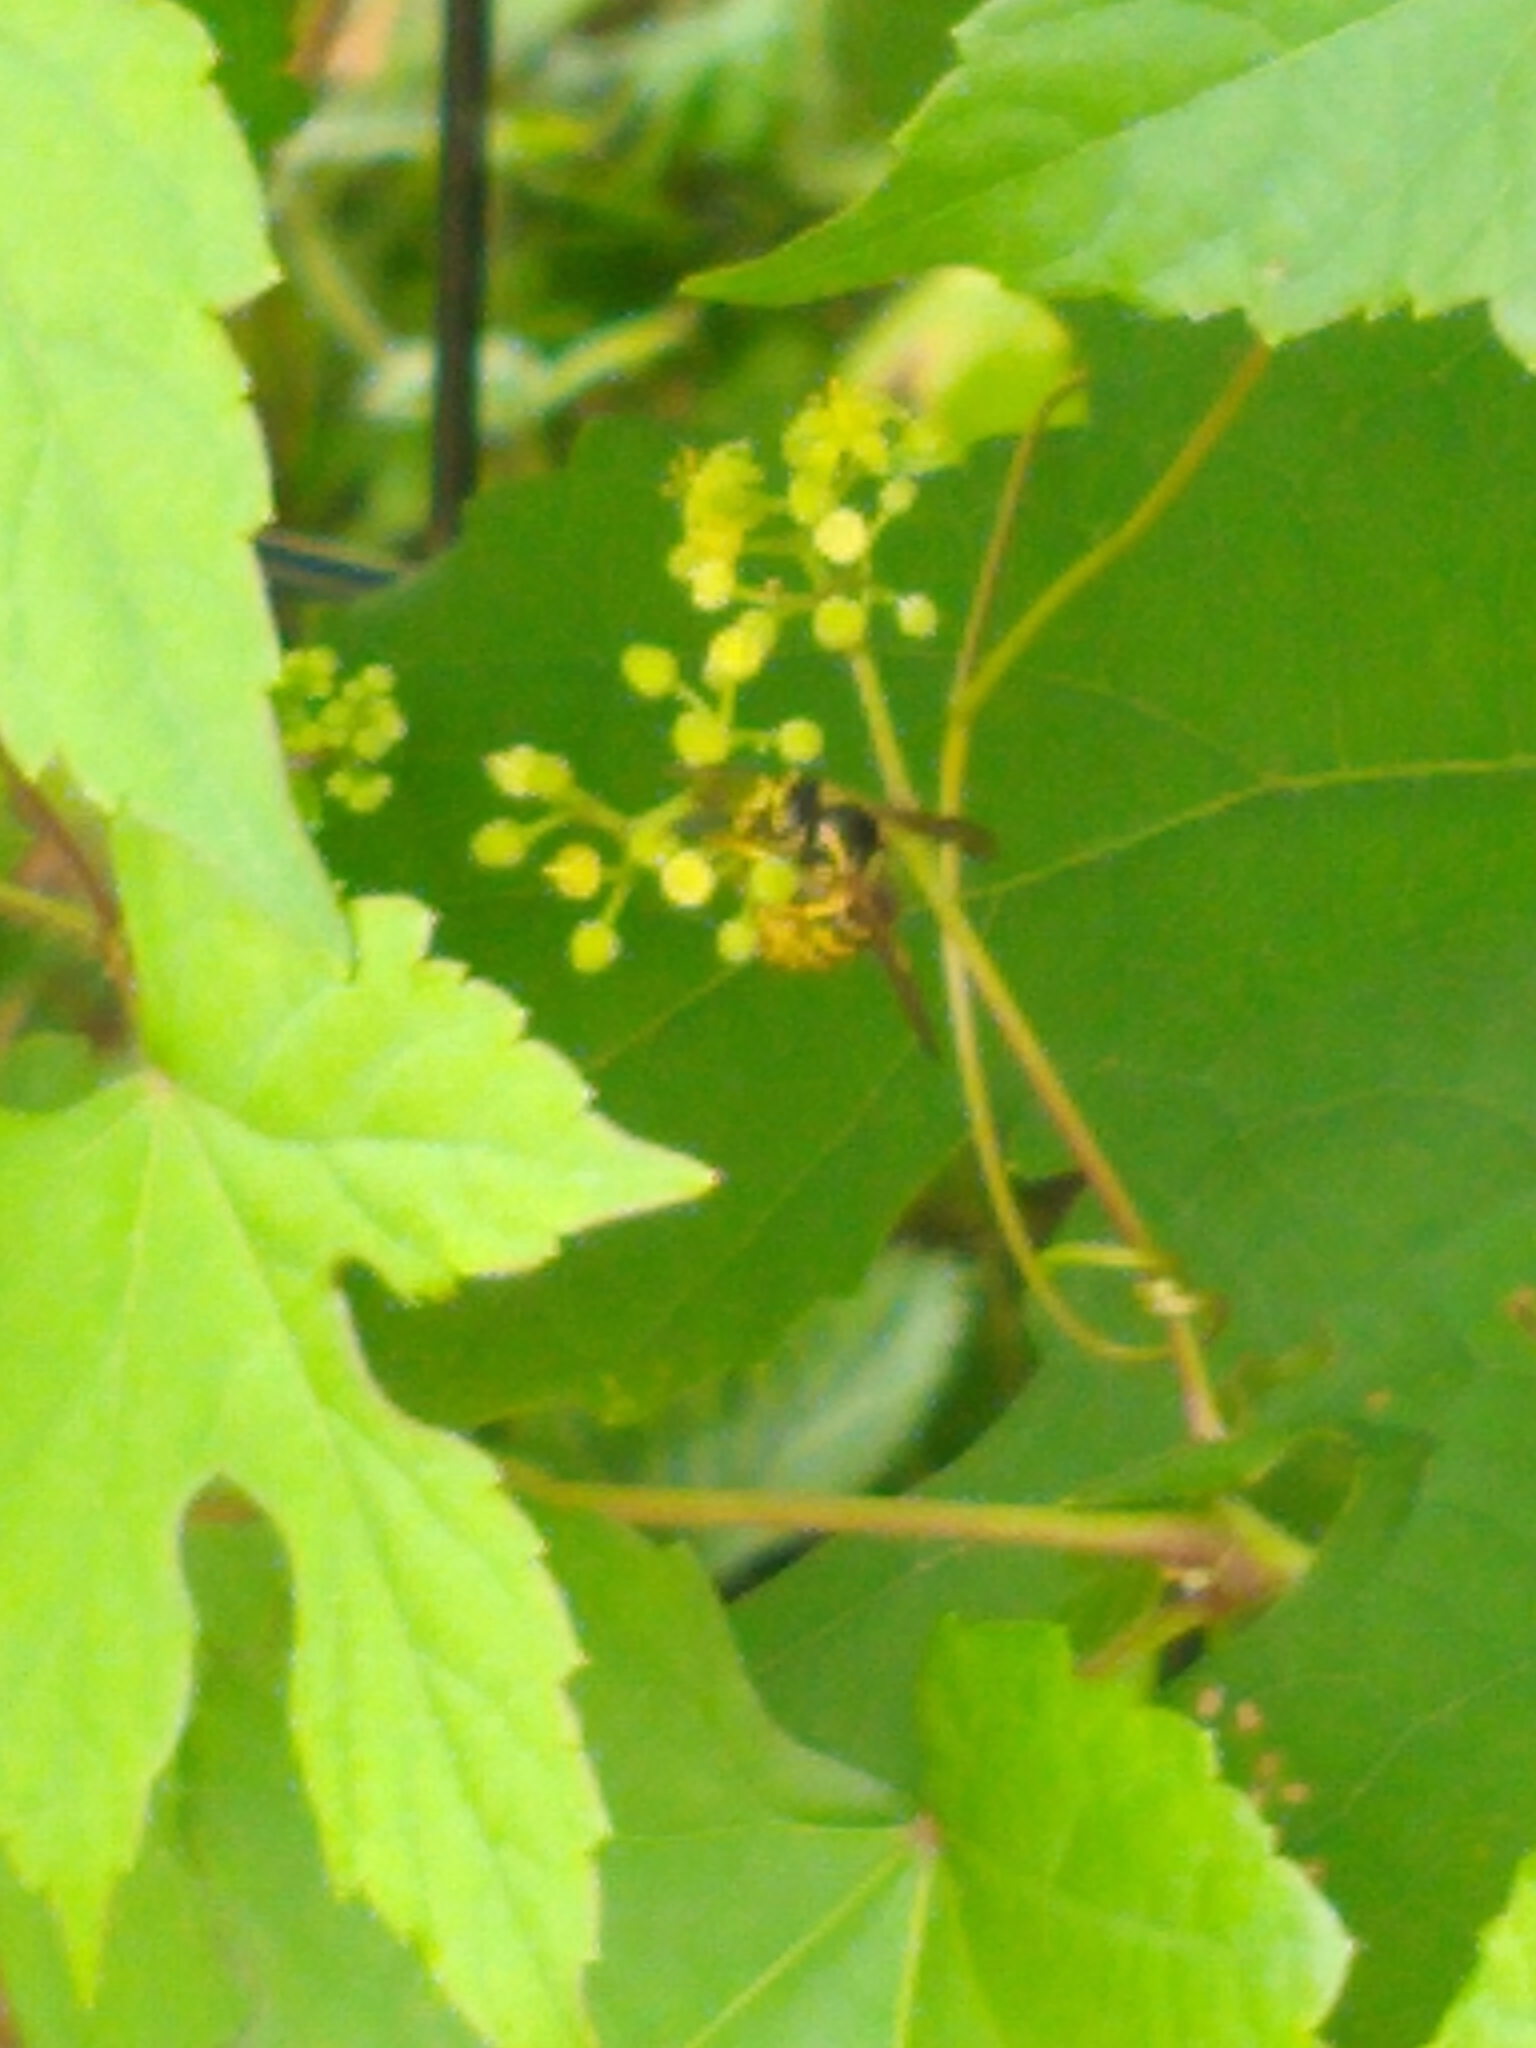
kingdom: Animalia
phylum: Arthropoda
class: Insecta
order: Hymenoptera
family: Vespidae
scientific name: Vespidae
